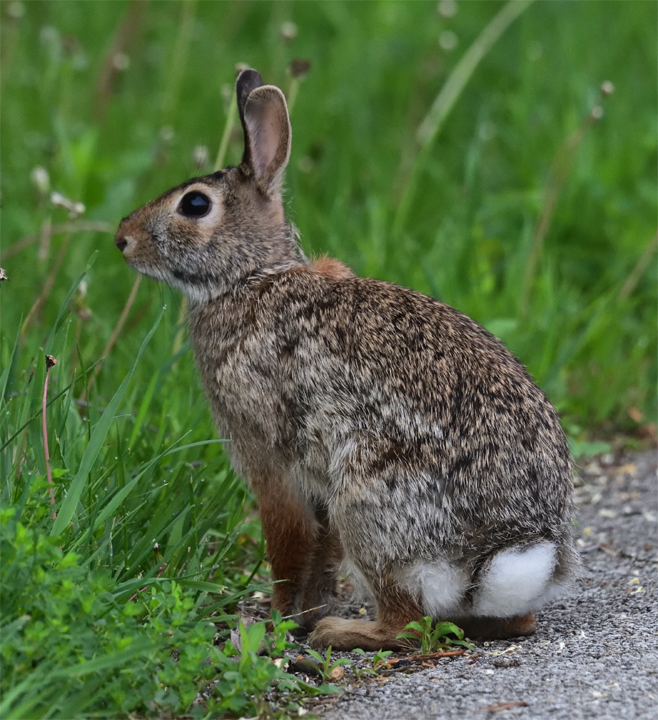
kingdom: Animalia
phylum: Chordata
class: Mammalia
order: Lagomorpha
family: Leporidae
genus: Sylvilagus
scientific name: Sylvilagus floridanus
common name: Eastern cottontail
